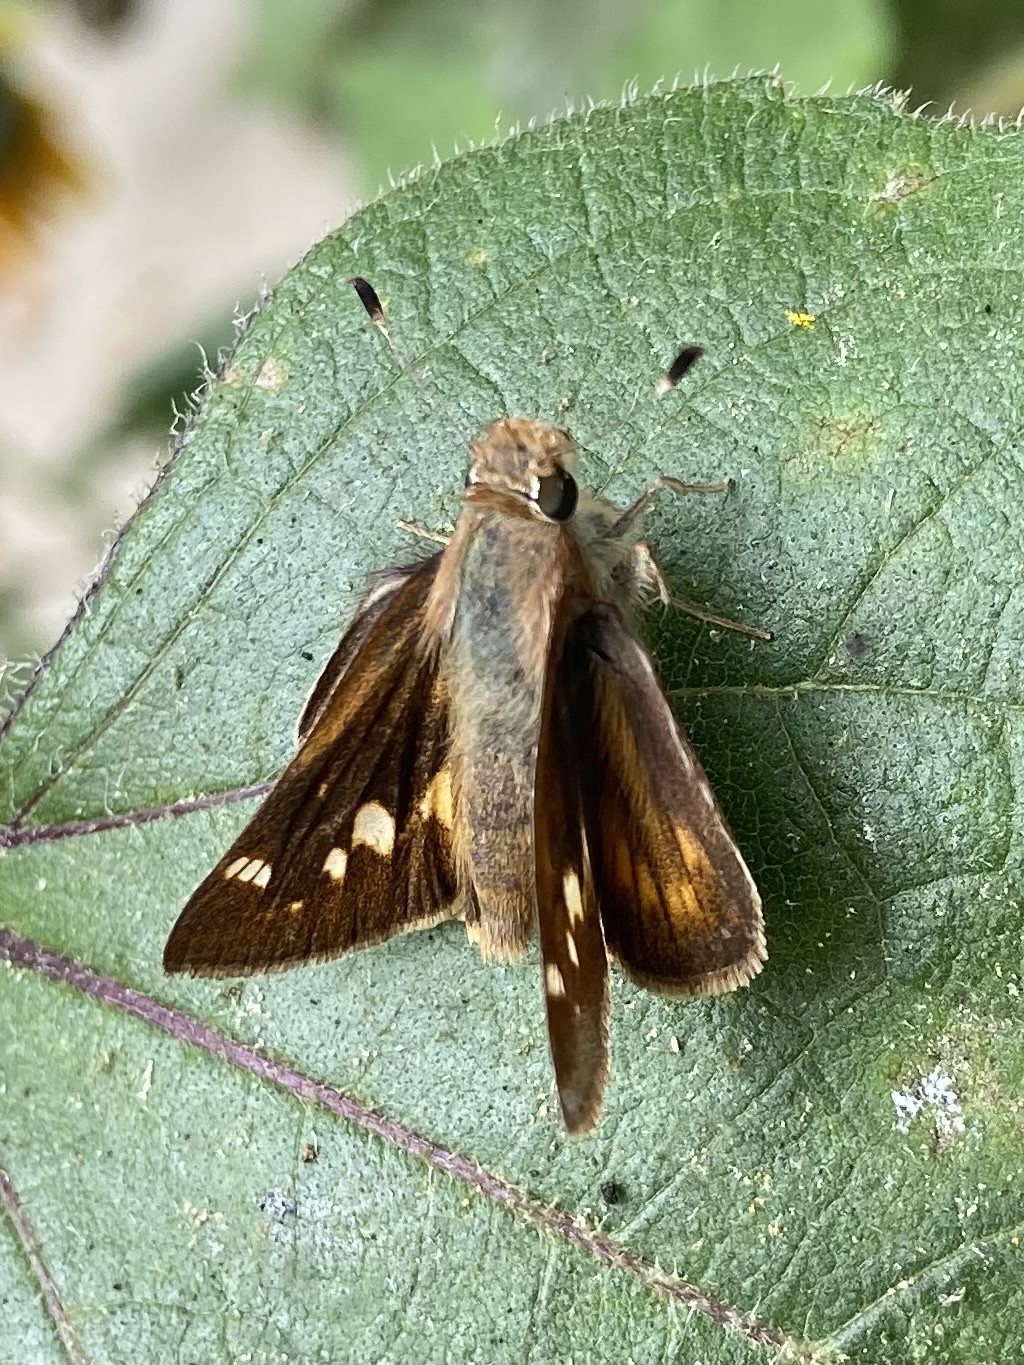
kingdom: Animalia
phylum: Arthropoda
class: Insecta
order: Lepidoptera
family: Hesperiidae
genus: Lon
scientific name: Lon melane
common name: Umber skipper
